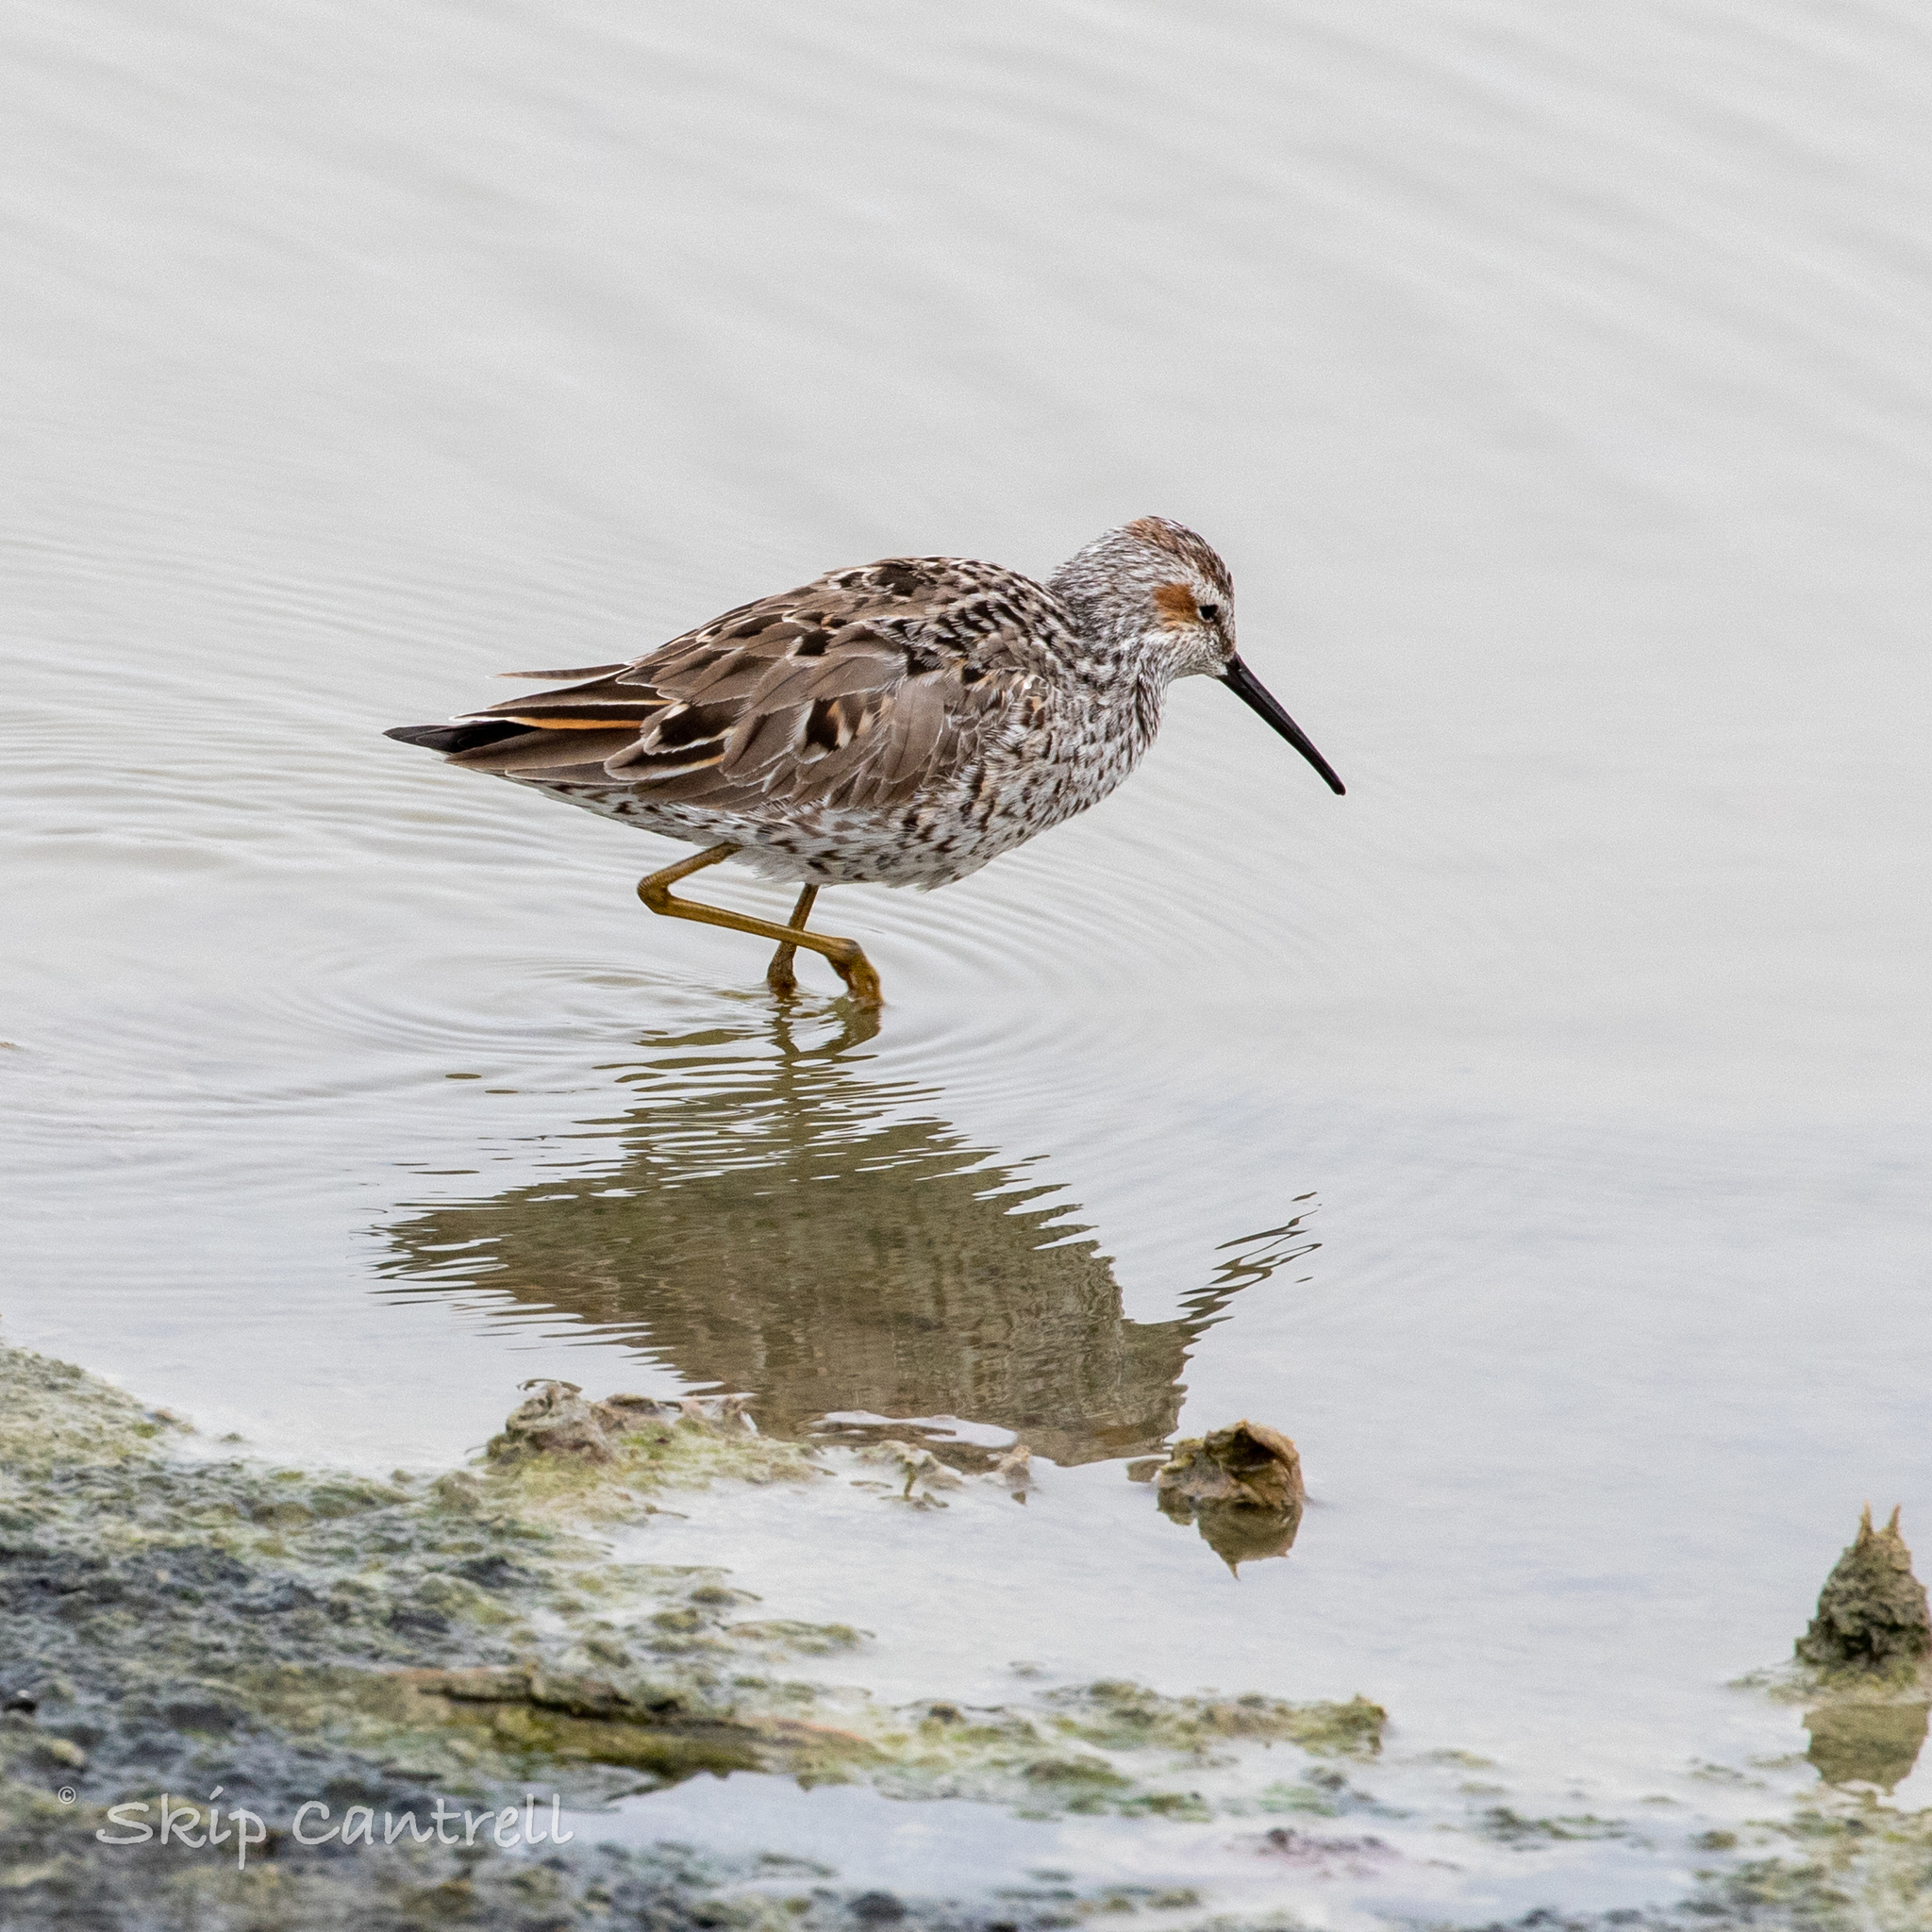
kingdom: Animalia
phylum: Chordata
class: Aves
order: Charadriiformes
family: Scolopacidae
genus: Calidris
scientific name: Calidris himantopus
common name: Stilt sandpiper
